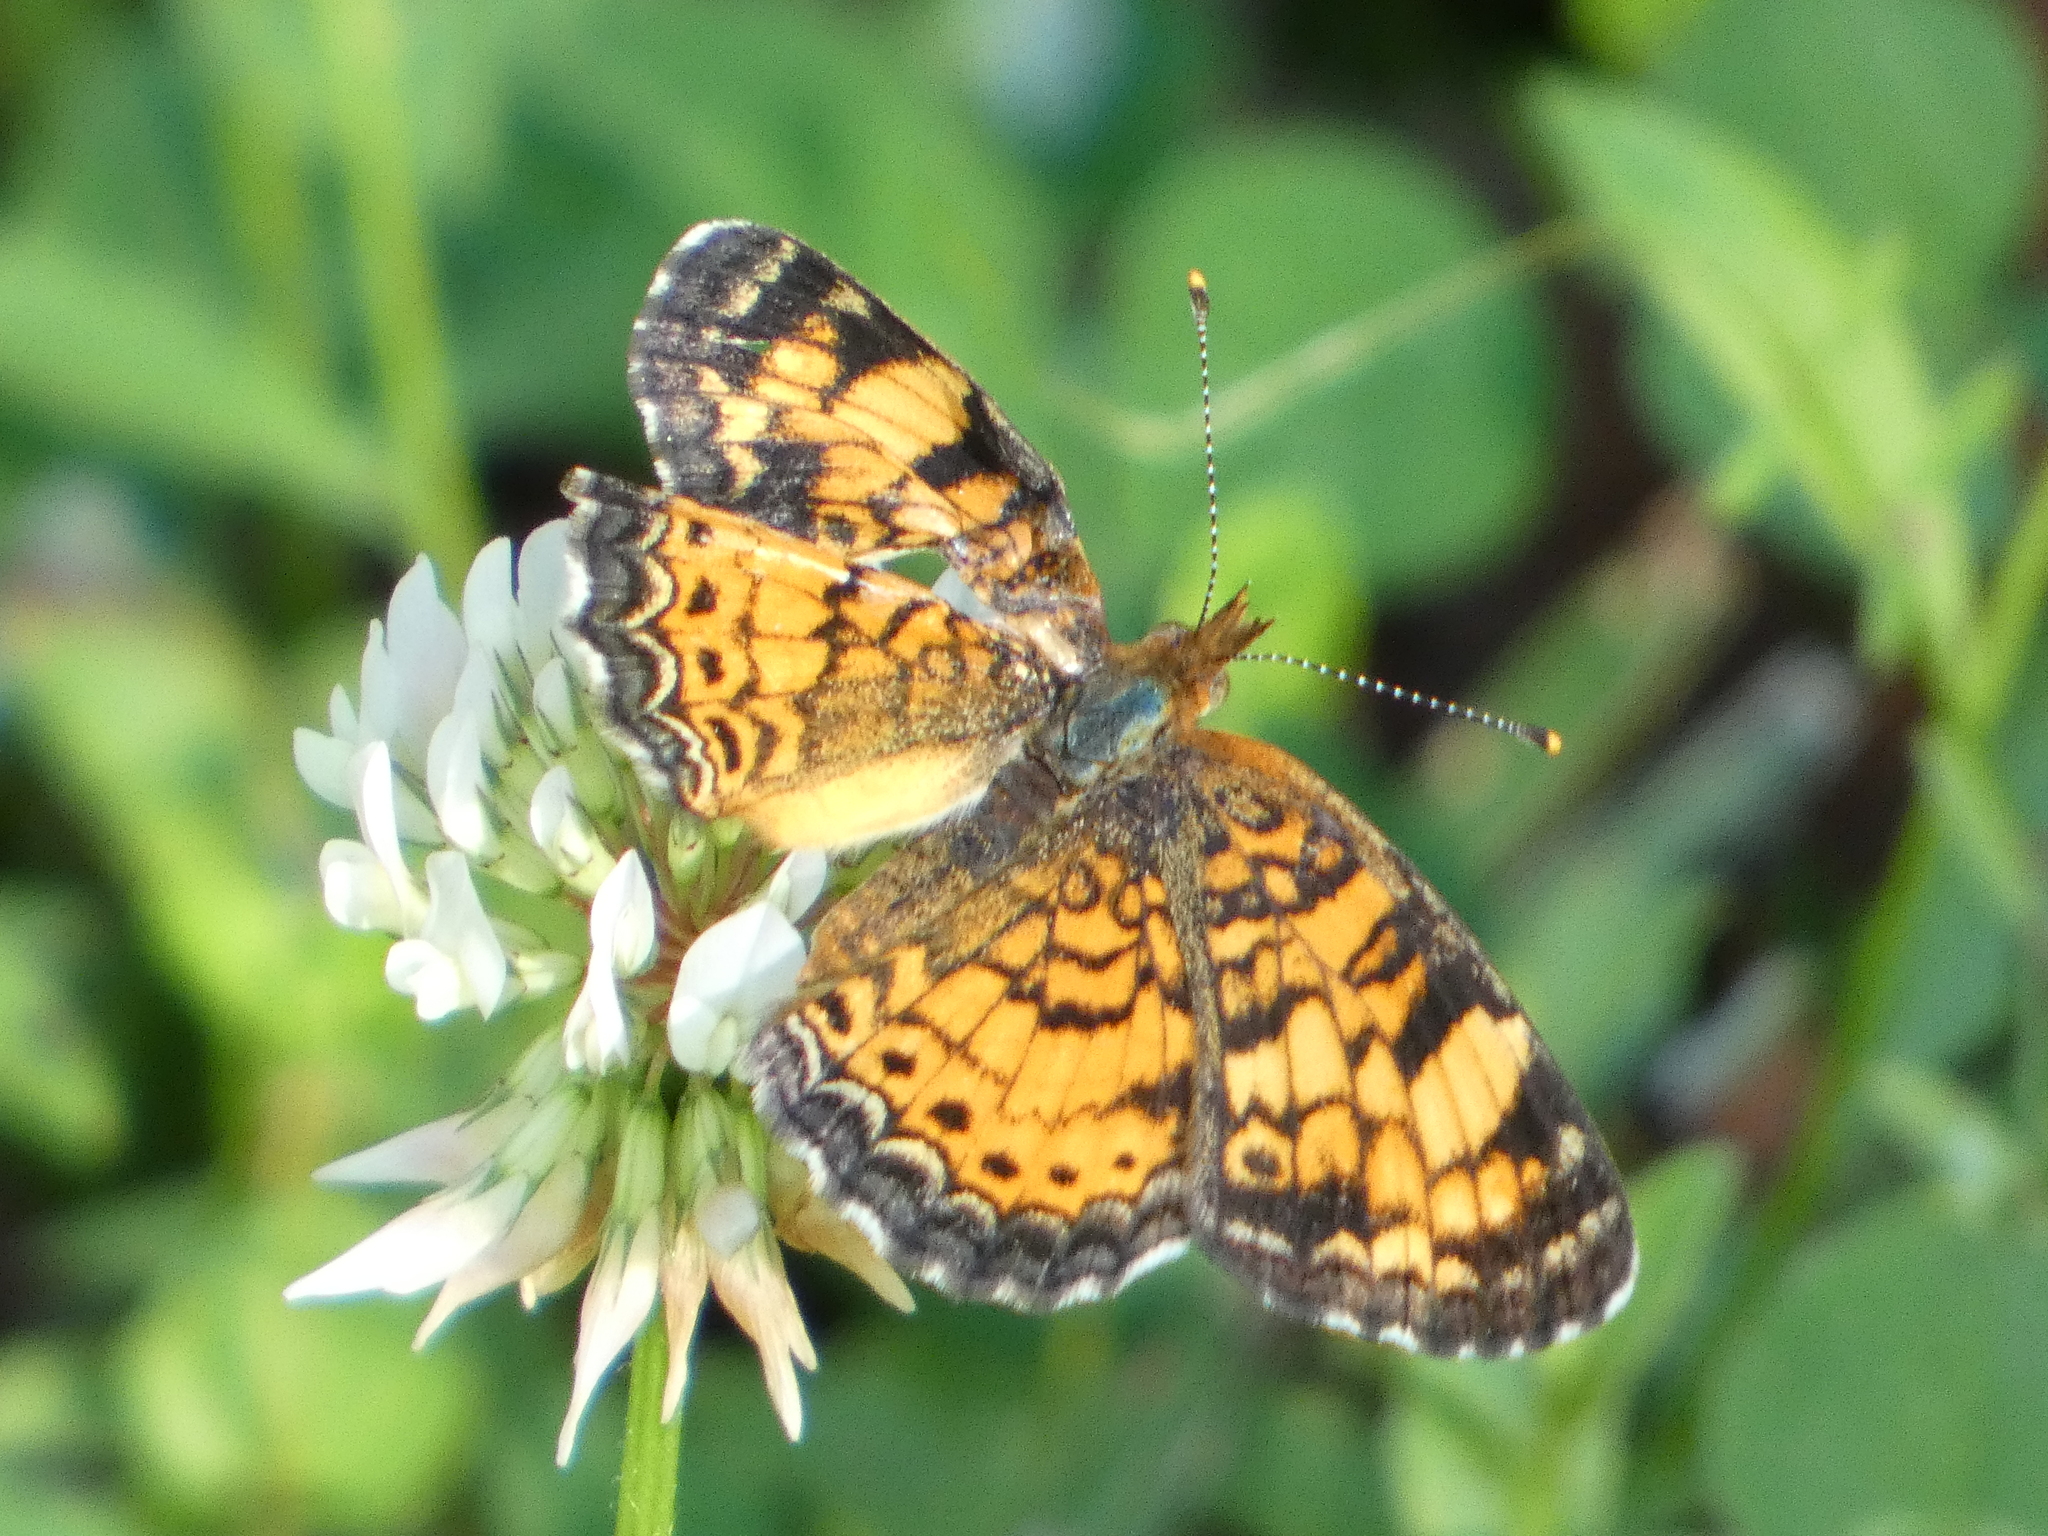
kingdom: Animalia
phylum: Arthropoda
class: Insecta
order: Lepidoptera
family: Nymphalidae
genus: Phyciodes
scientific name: Phyciodes tharos
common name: Pearl crescent
